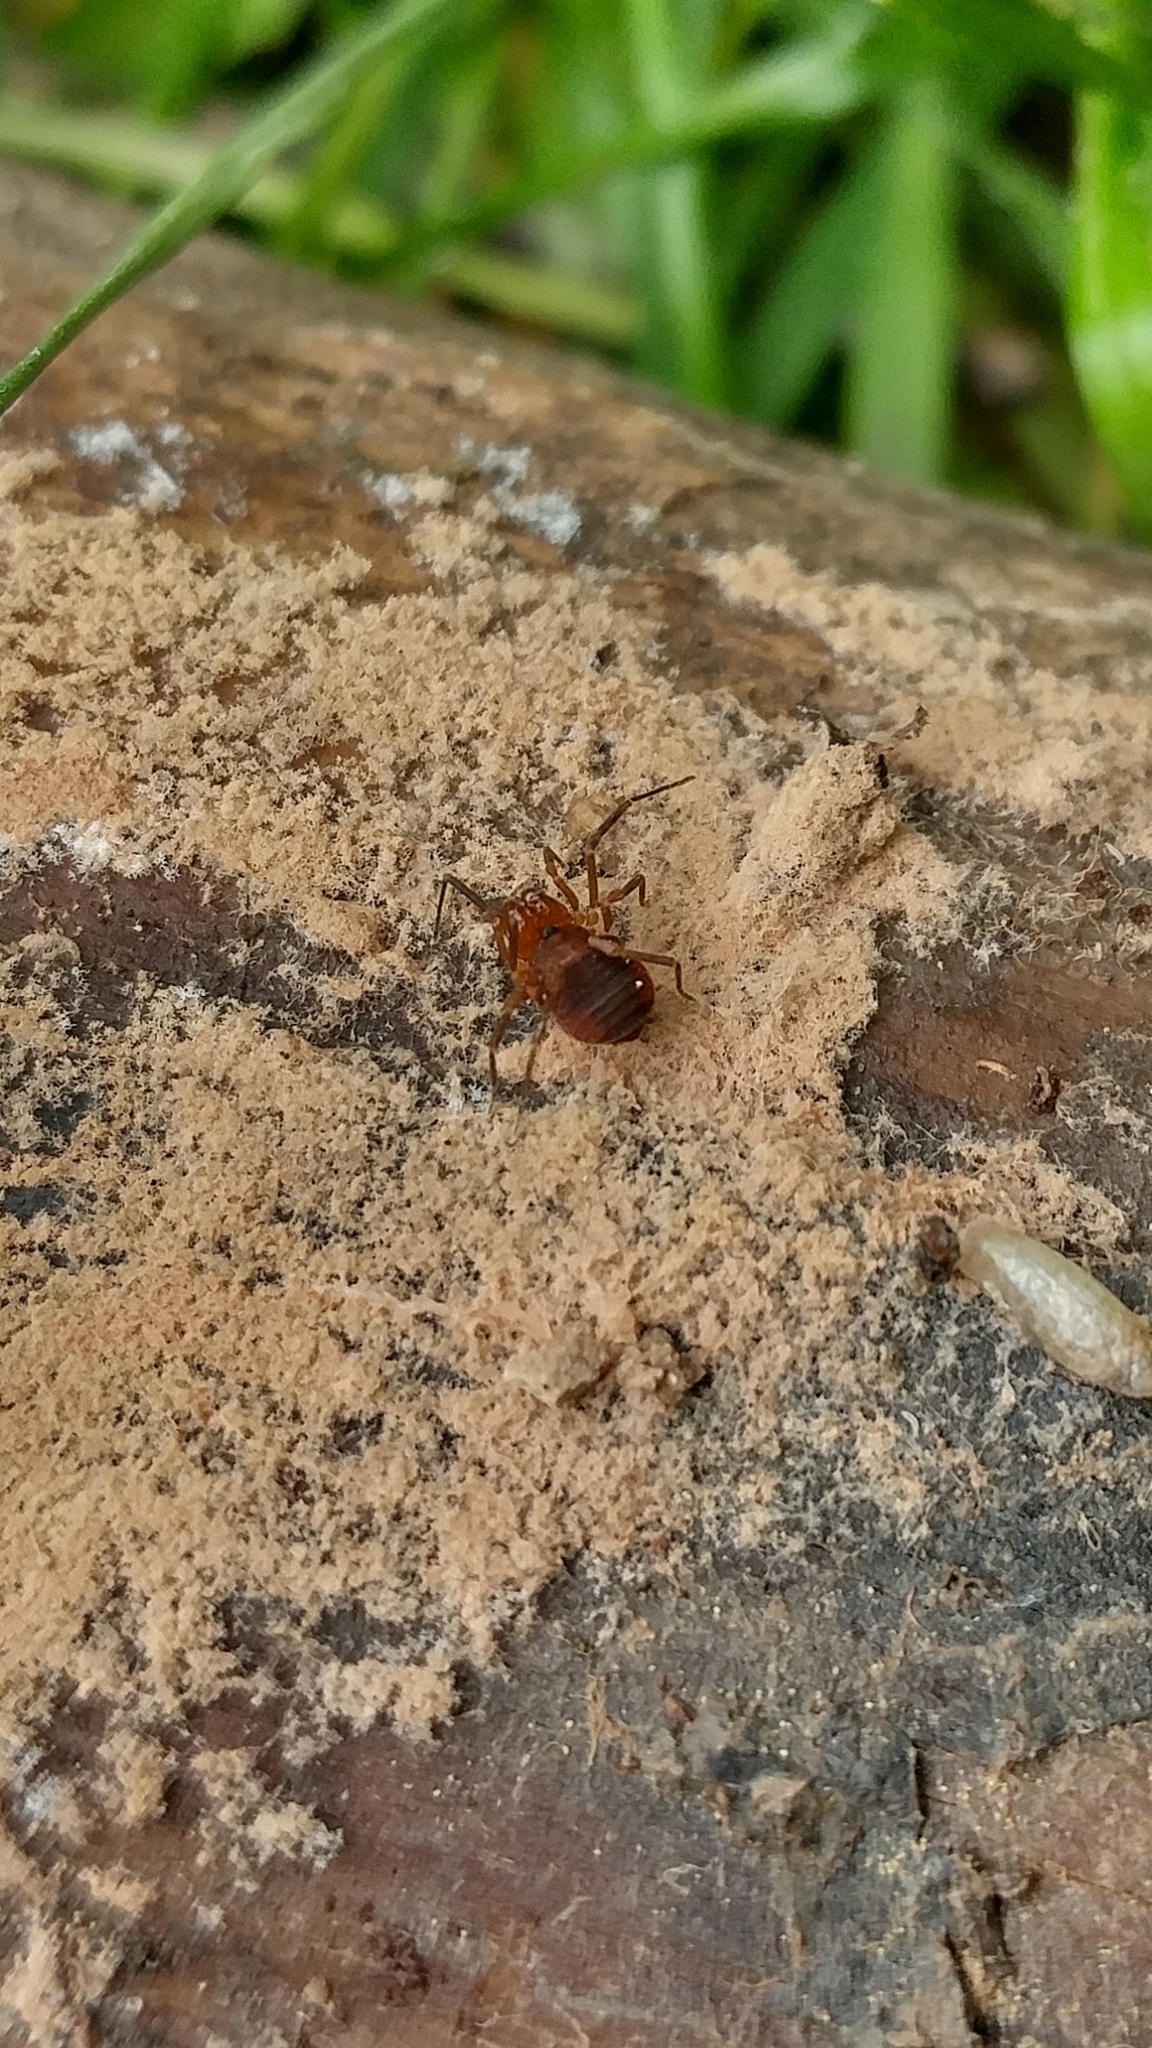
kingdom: Animalia
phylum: Arthropoda
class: Arachnida
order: Opiliones
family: Paranonychidae
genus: Sclerobunus
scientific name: Sclerobunus robustus
